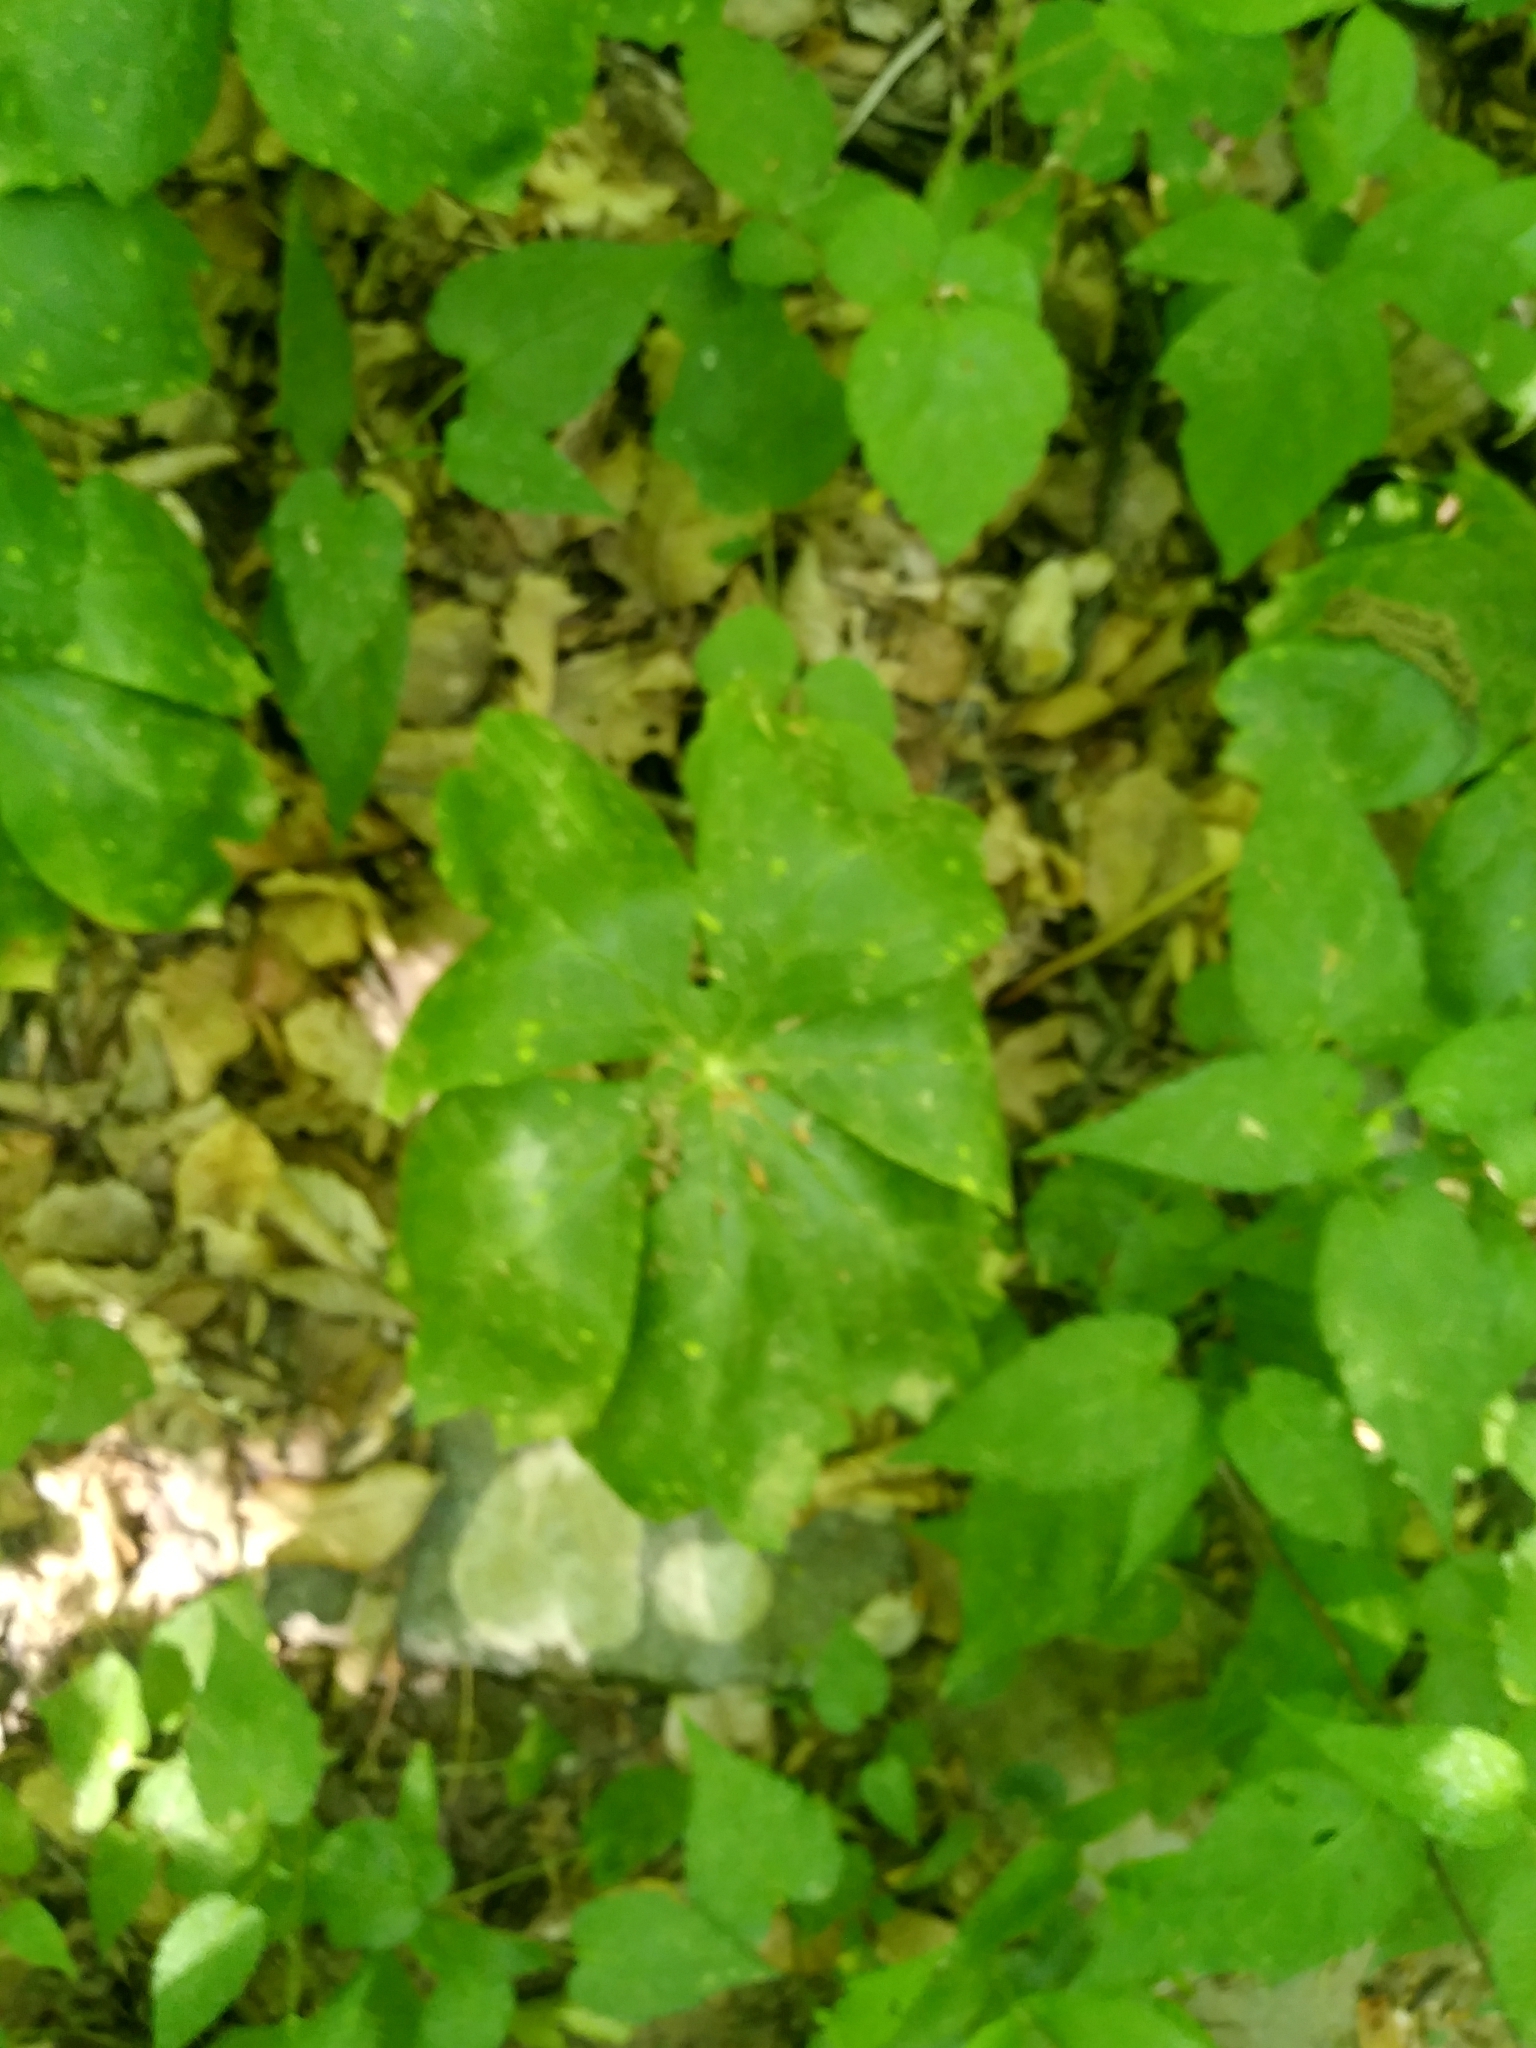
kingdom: Plantae
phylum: Tracheophyta
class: Magnoliopsida
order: Ranunculales
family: Berberidaceae
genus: Podophyllum
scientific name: Podophyllum peltatum
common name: Wild mandrake
